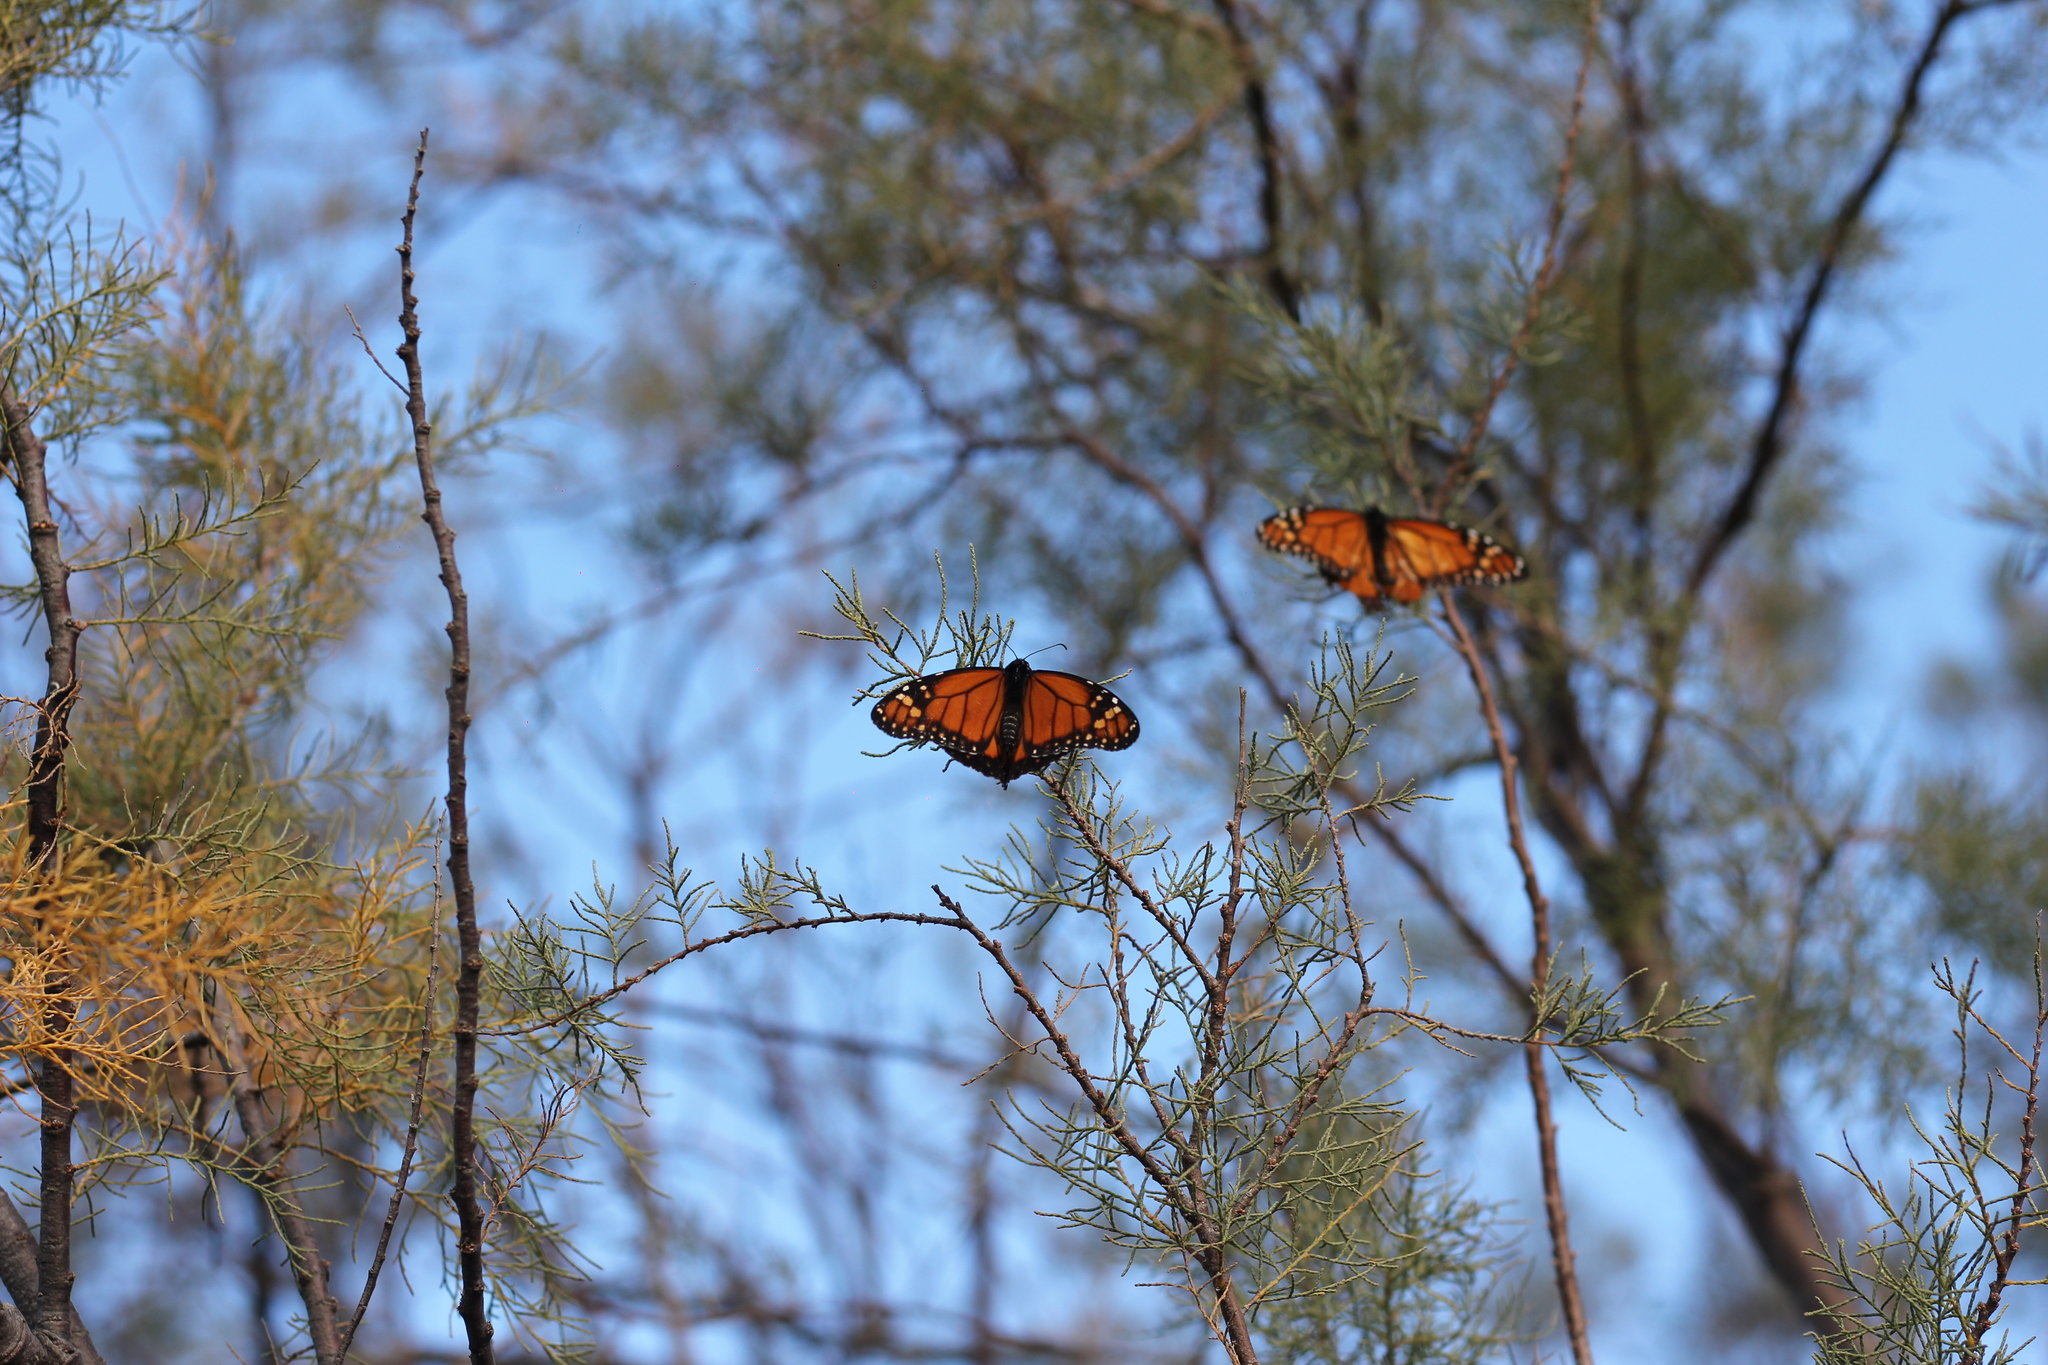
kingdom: Animalia
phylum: Arthropoda
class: Insecta
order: Lepidoptera
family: Nymphalidae
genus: Danaus
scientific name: Danaus erippus
